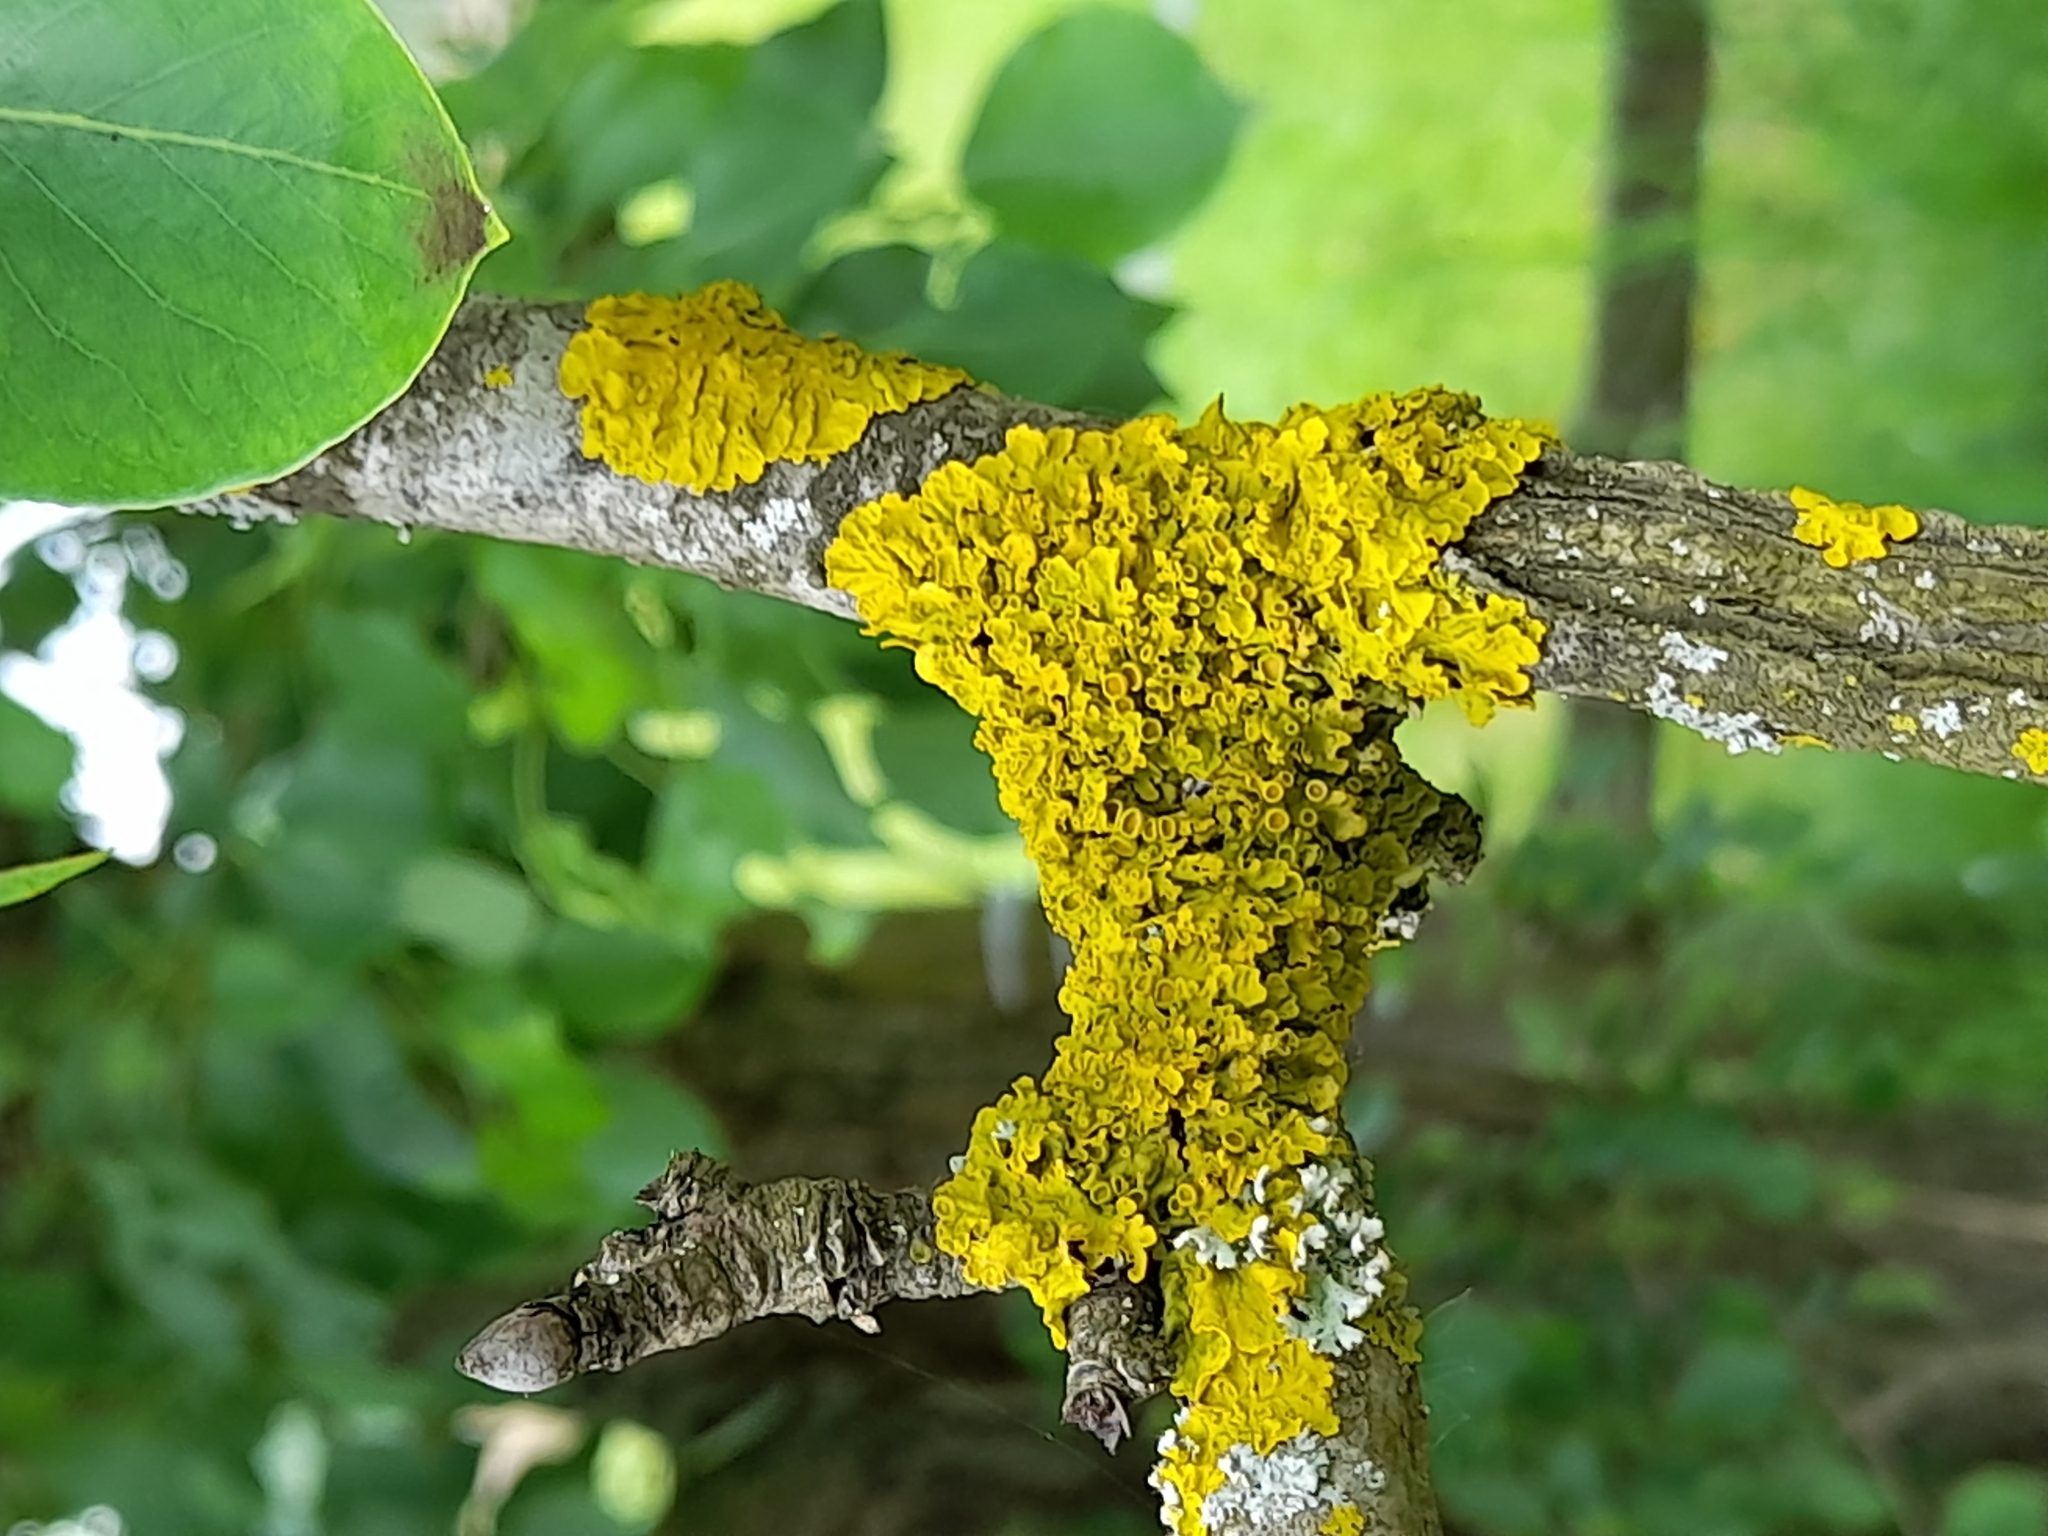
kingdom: Fungi
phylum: Ascomycota
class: Lecanoromycetes
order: Teloschistales
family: Teloschistaceae
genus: Xanthoria
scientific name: Xanthoria parietina
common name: Common orange lichen
